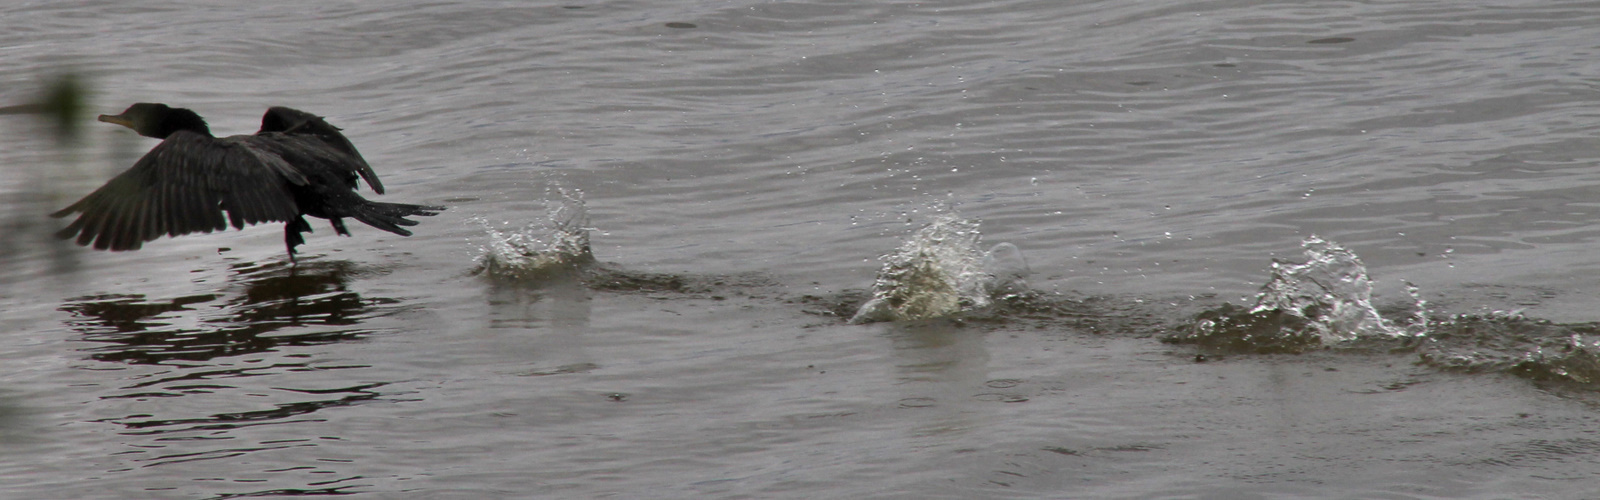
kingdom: Animalia
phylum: Chordata
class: Aves
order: Suliformes
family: Phalacrocoracidae
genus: Phalacrocorax
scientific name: Phalacrocorax brasilianus
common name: Neotropic cormorant
